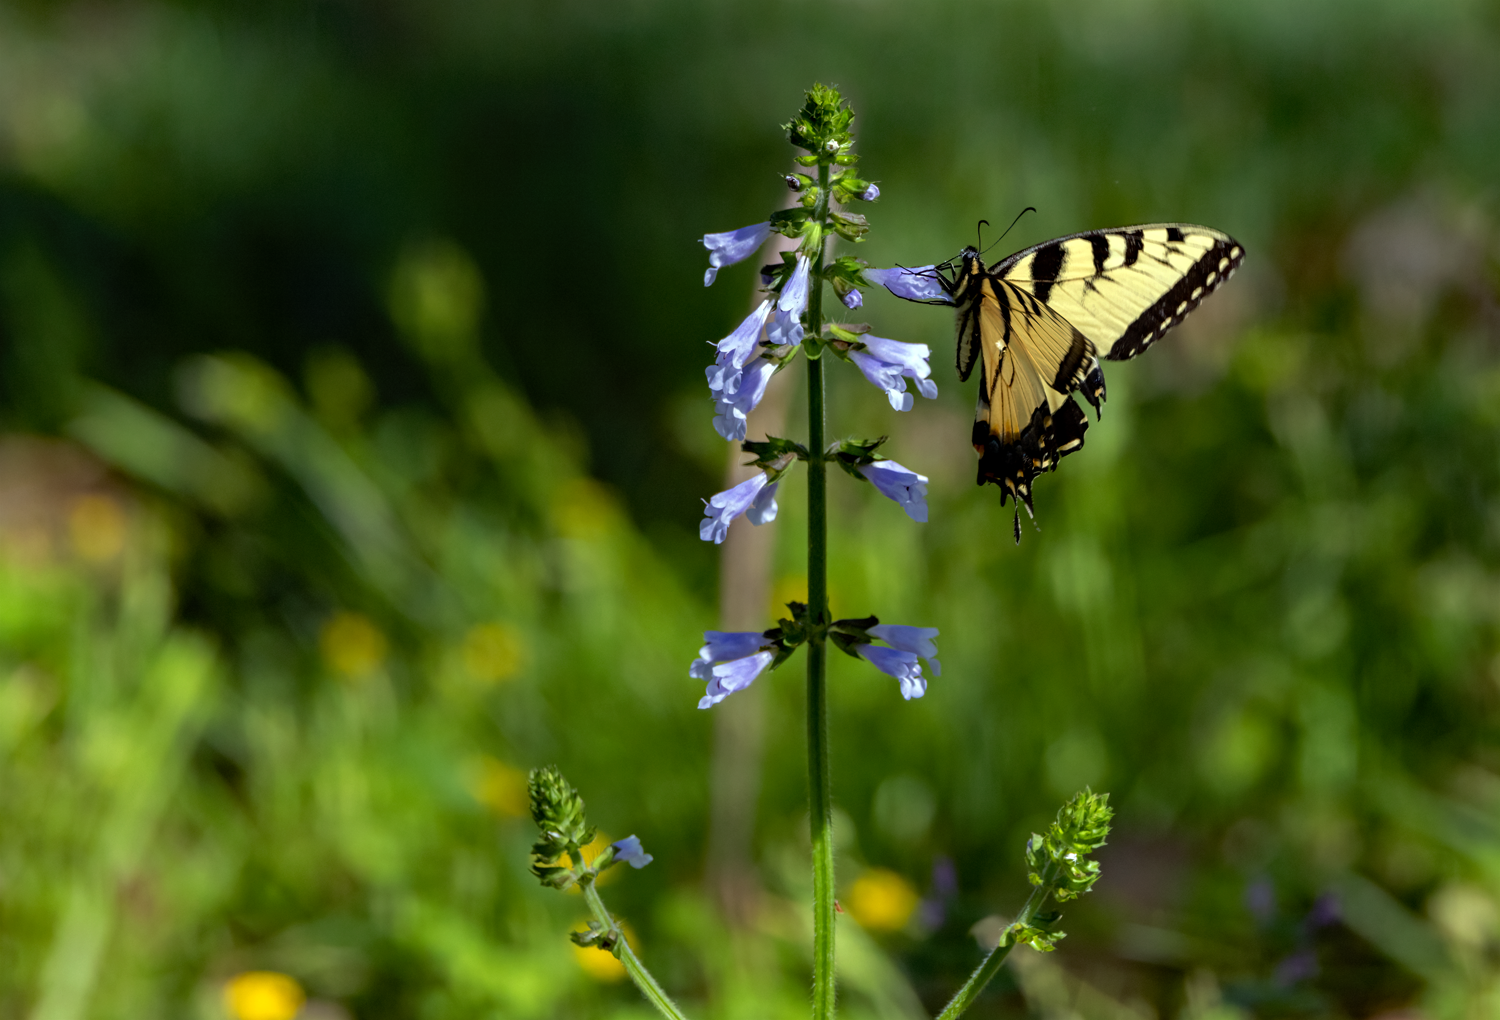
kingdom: Plantae
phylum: Tracheophyta
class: Magnoliopsida
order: Lamiales
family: Lamiaceae
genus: Salvia
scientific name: Salvia lyrata
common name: Cancerweed
